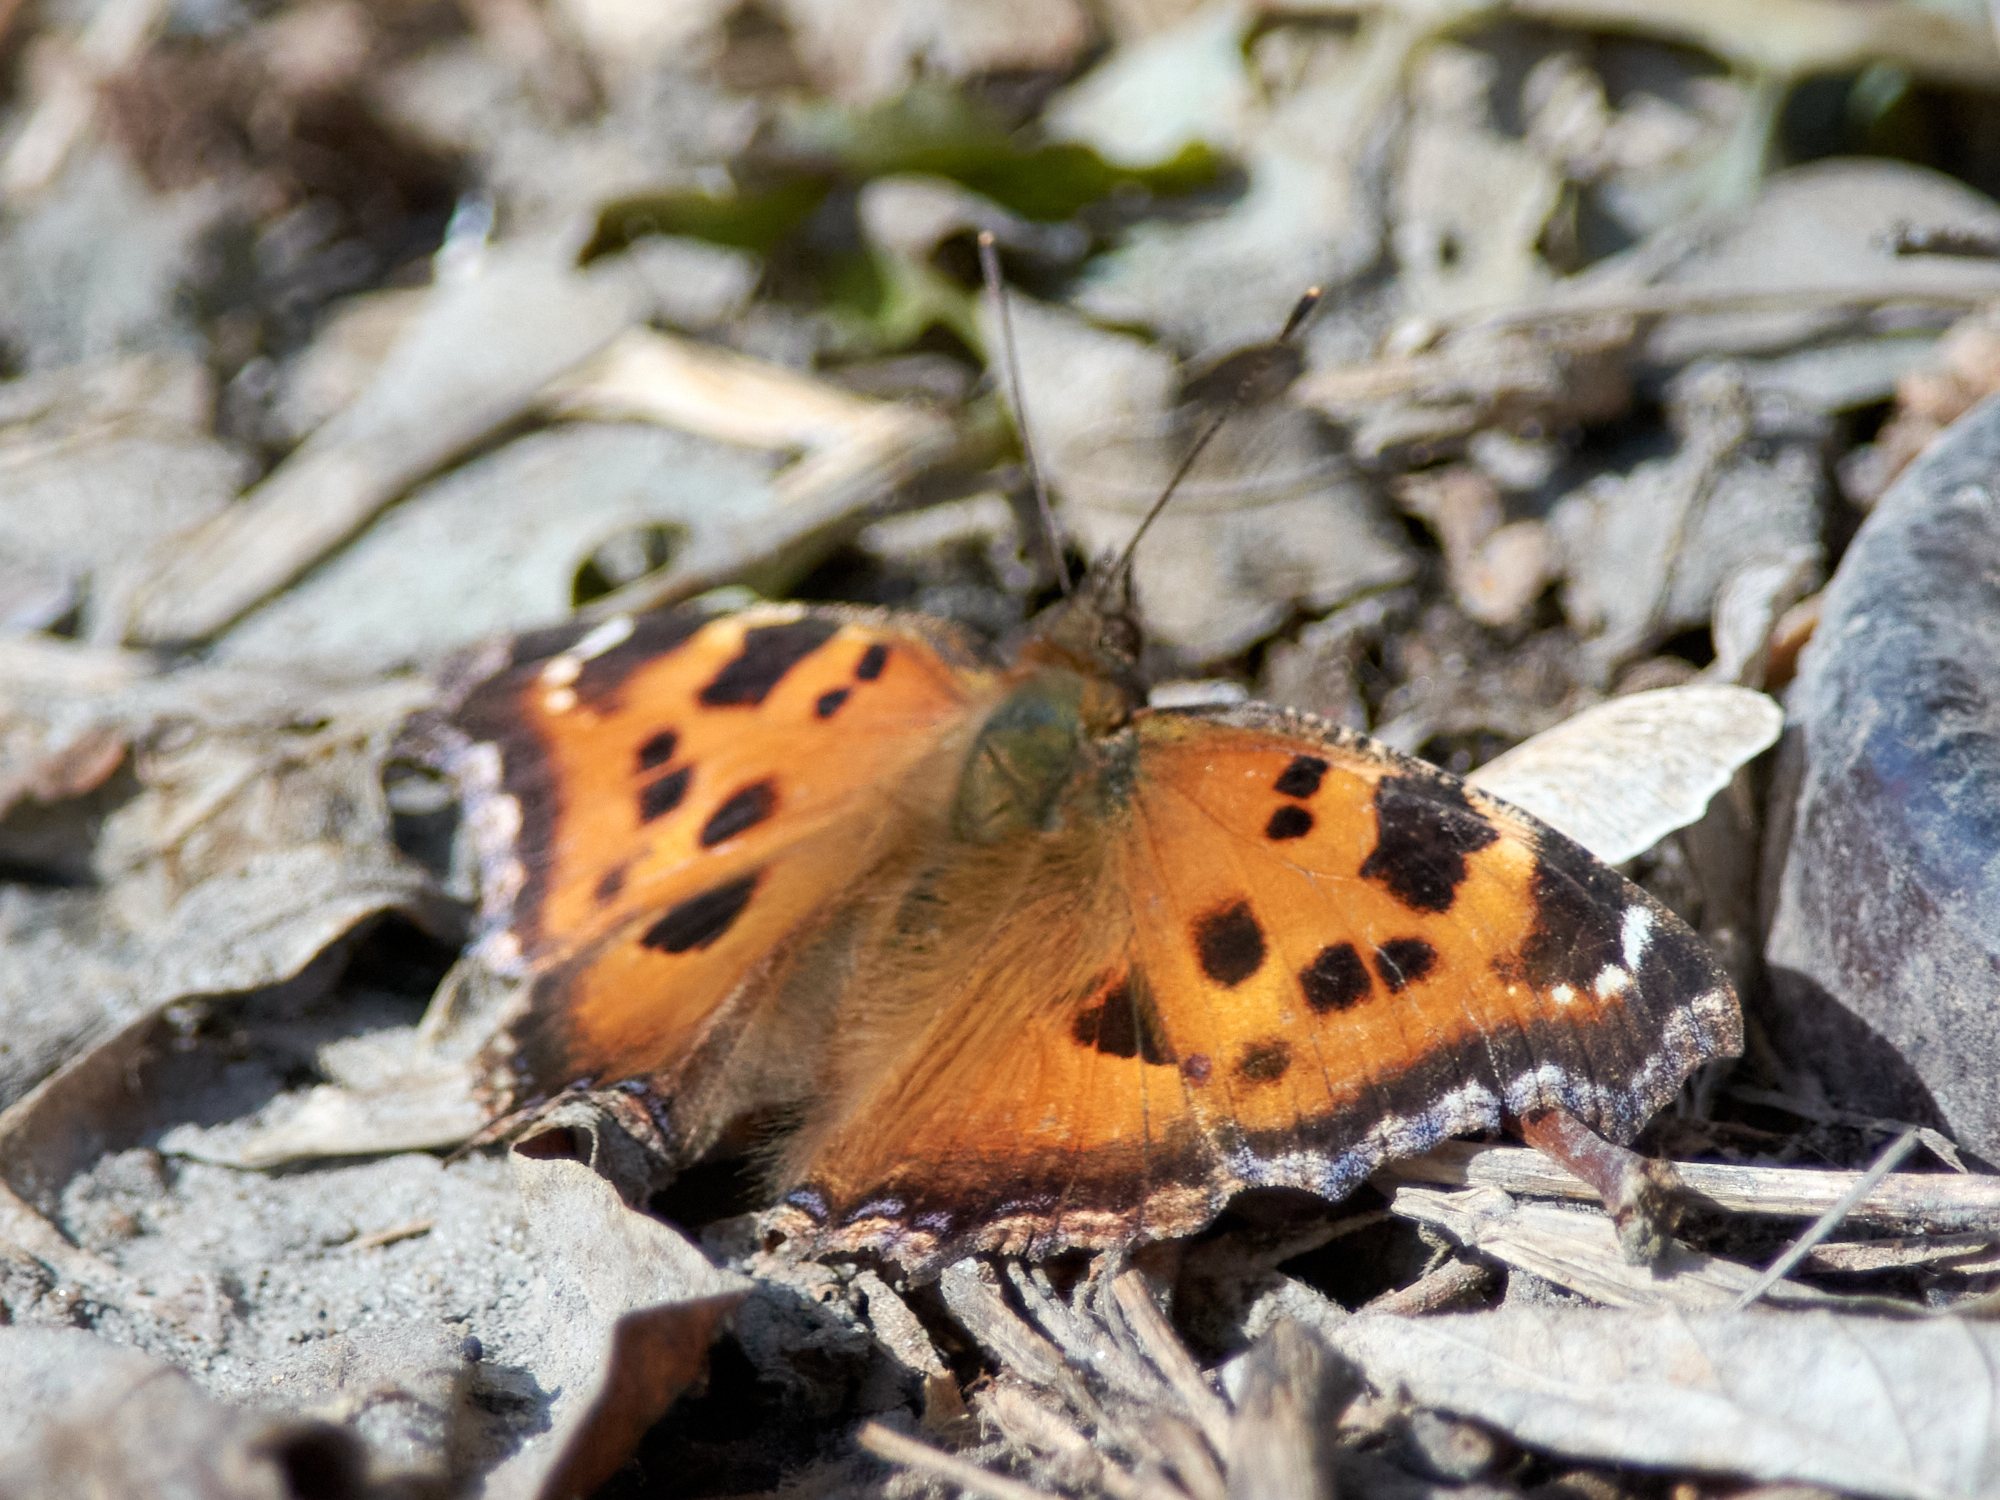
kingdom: Animalia
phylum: Arthropoda
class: Insecta
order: Lepidoptera
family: Nymphalidae
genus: Nymphalis
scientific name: Nymphalis xanthomelas
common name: Scarce tortoiseshell
